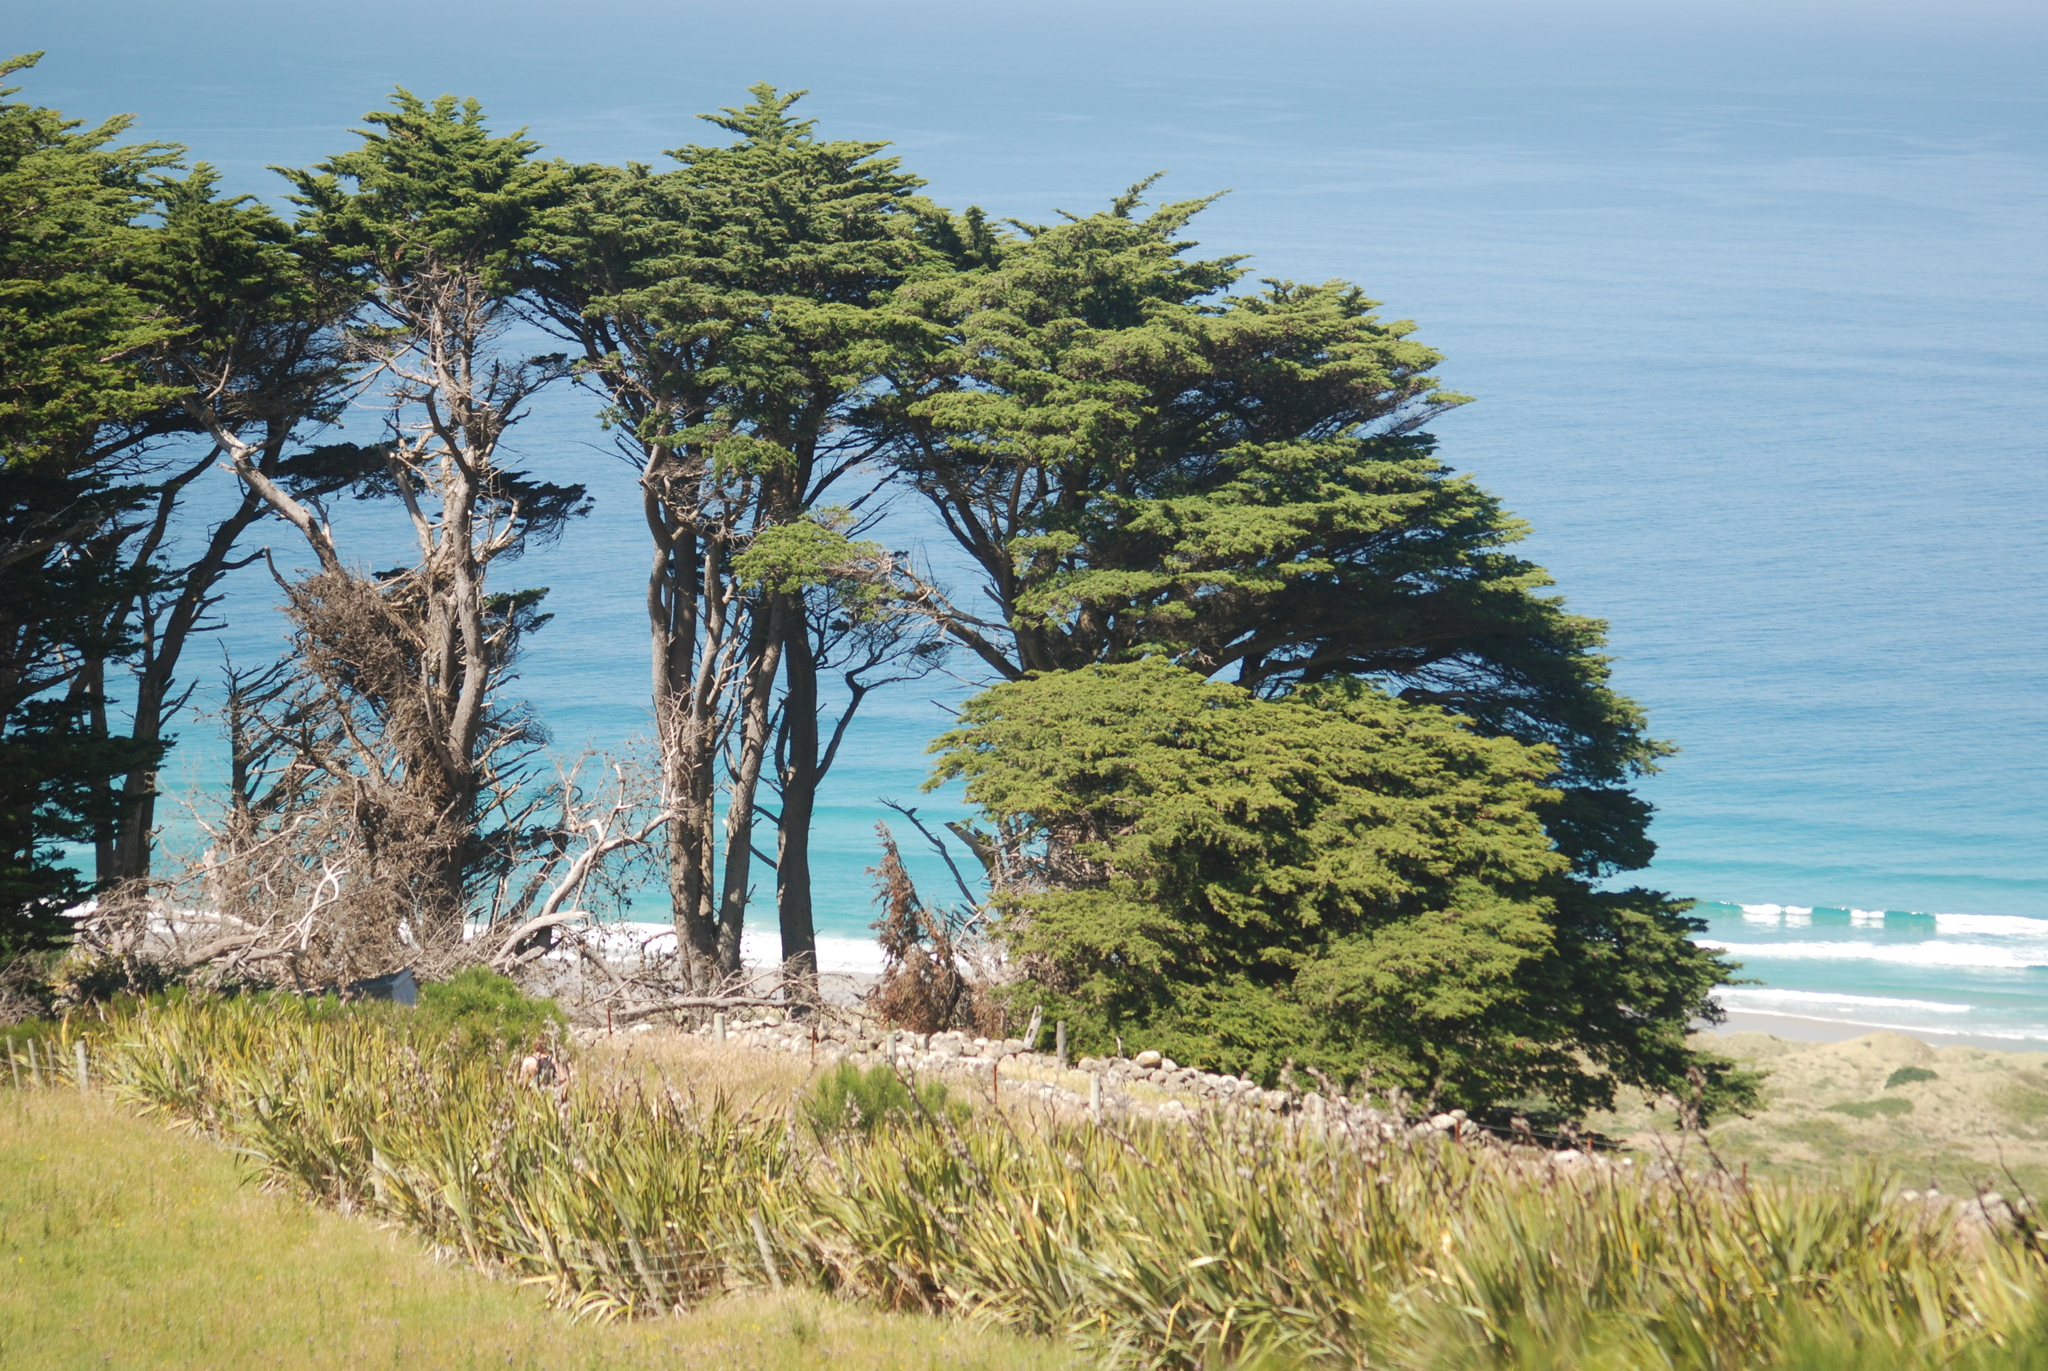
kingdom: Plantae
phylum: Tracheophyta
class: Pinopsida
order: Pinales
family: Cupressaceae
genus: Cupressus
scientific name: Cupressus macrocarpa
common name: Monterey cypress
